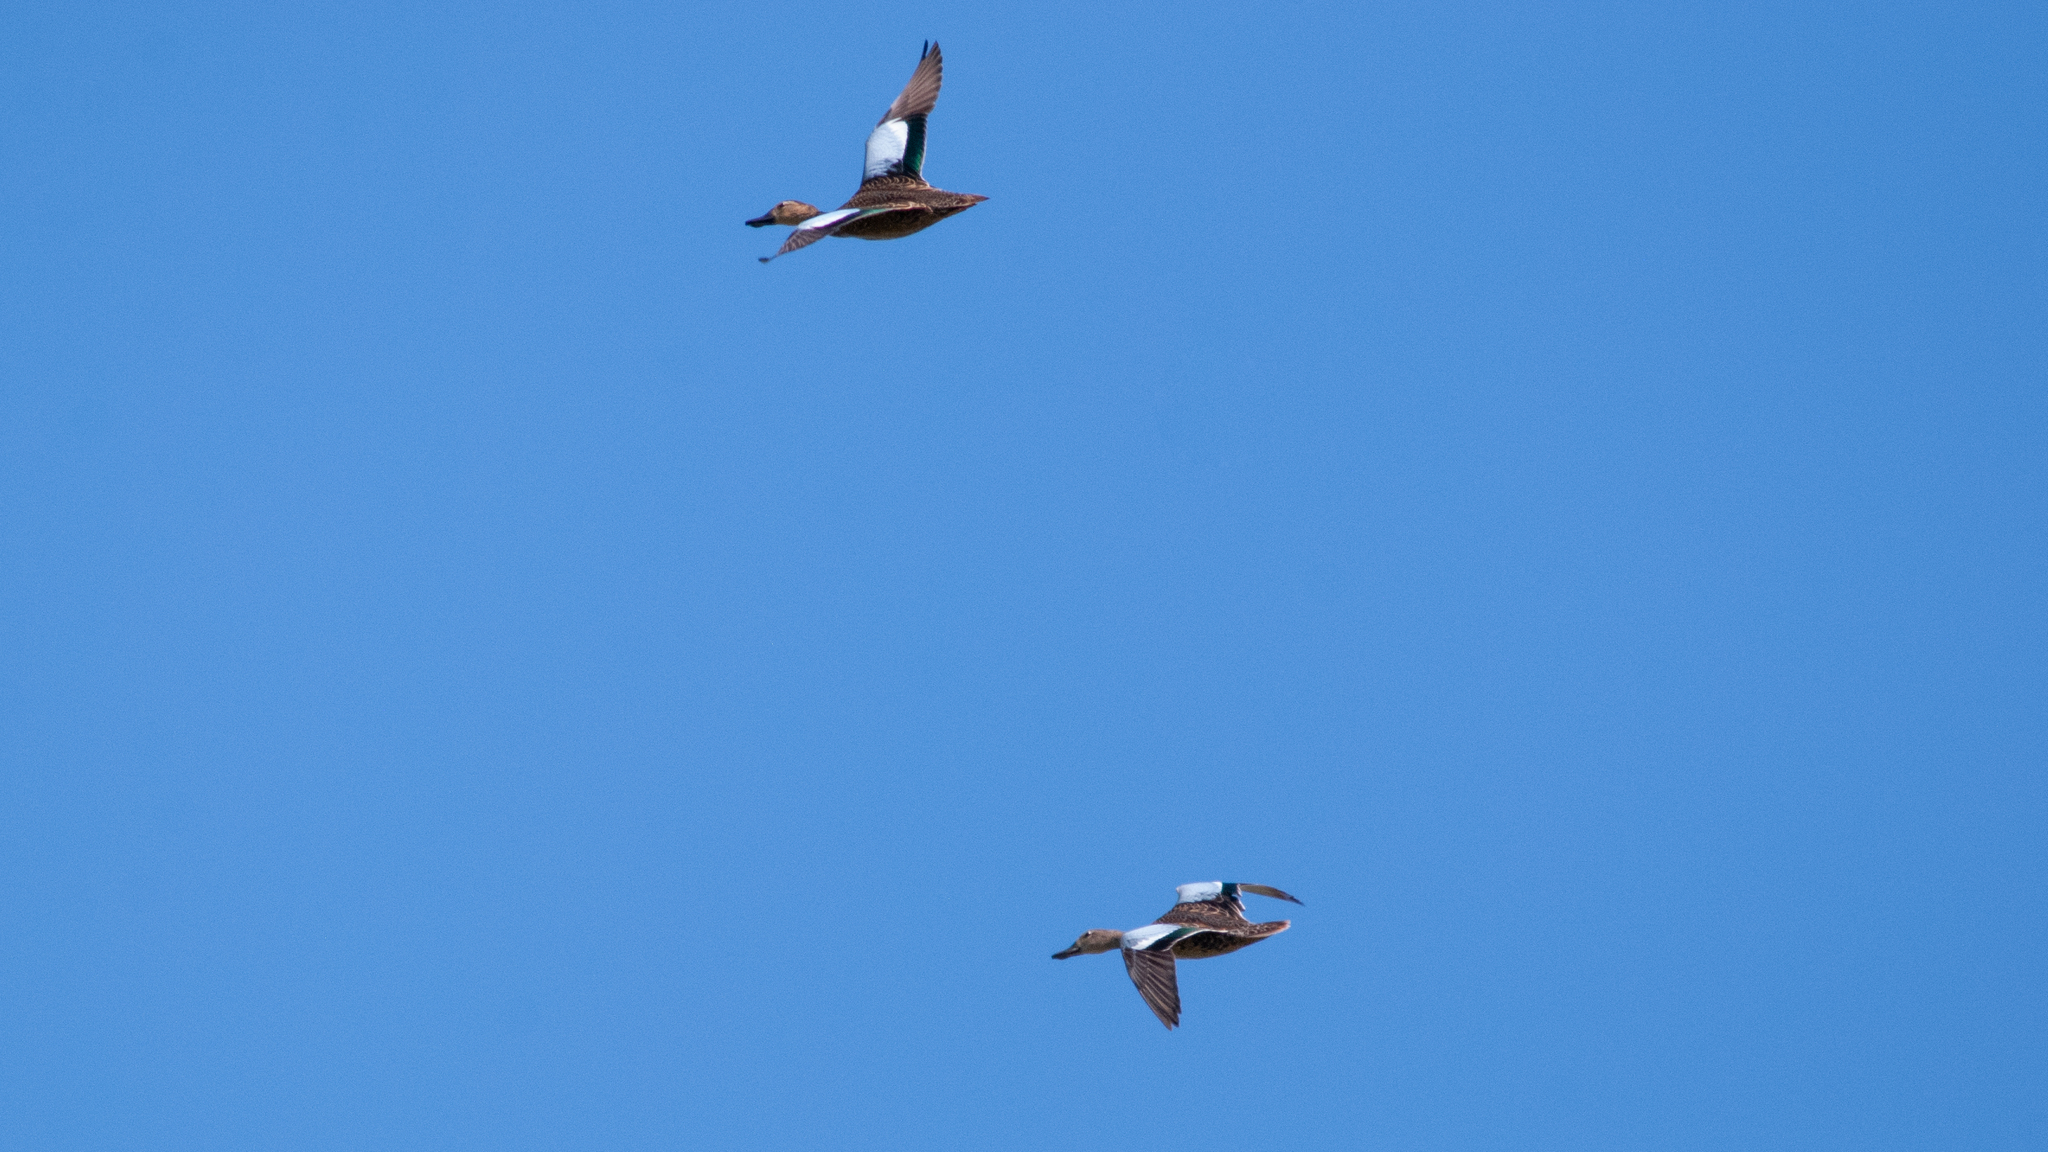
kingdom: Animalia
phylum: Chordata
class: Aves
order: Anseriformes
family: Anatidae
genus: Spatula
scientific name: Spatula discors
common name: Blue-winged teal
